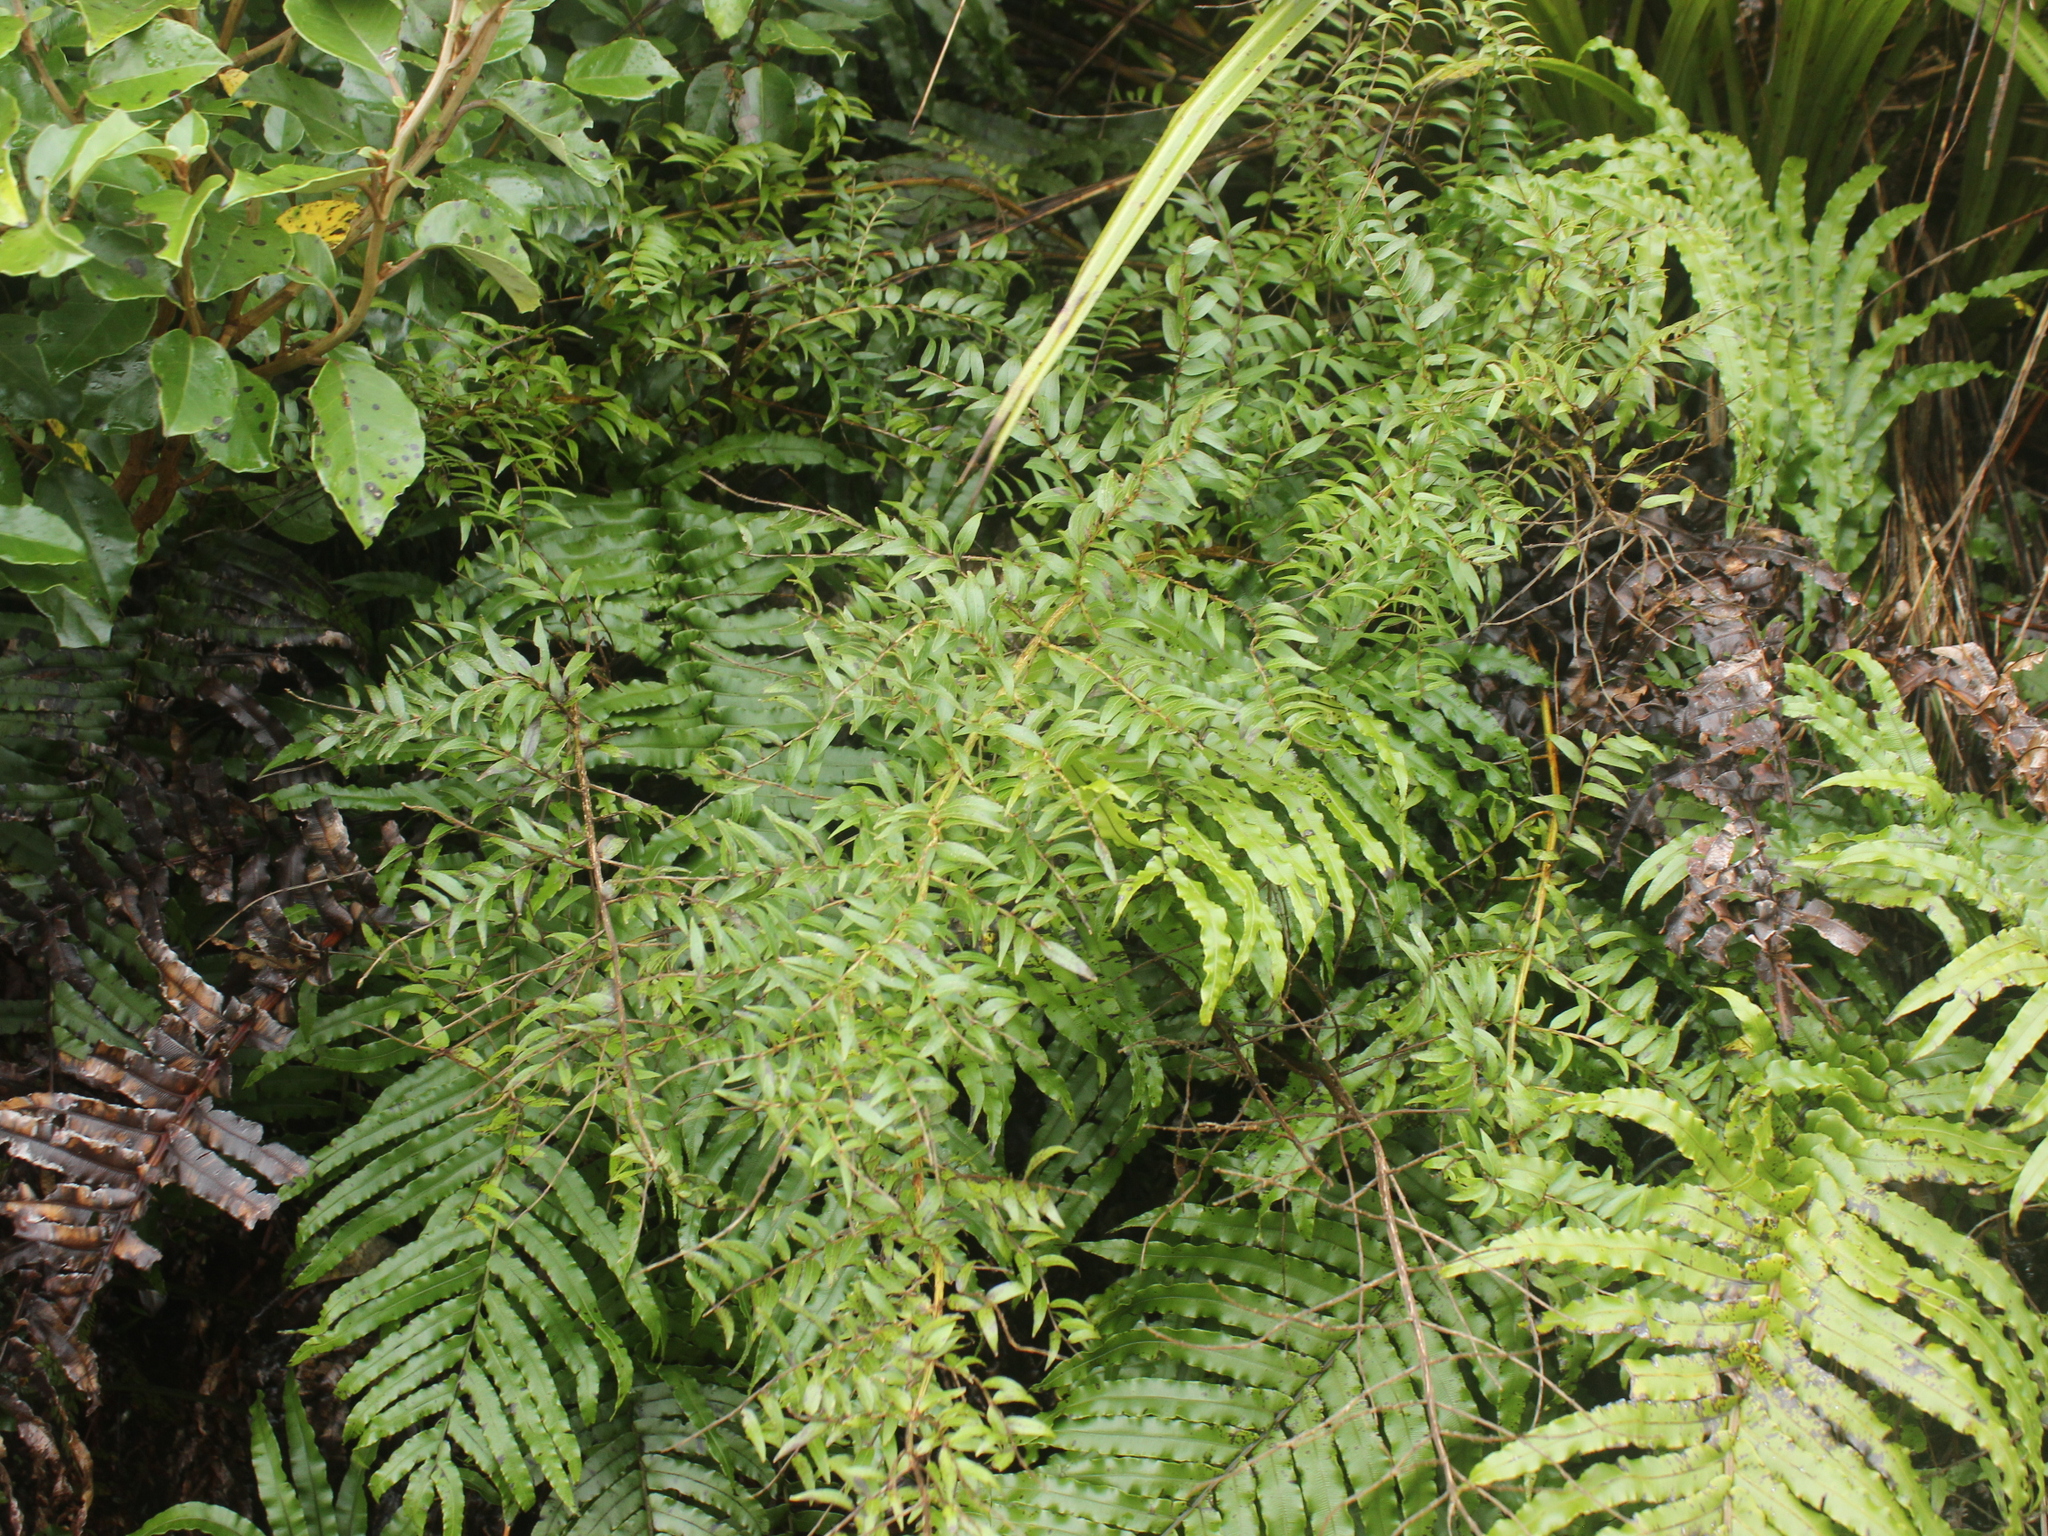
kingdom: Plantae
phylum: Tracheophyta
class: Magnoliopsida
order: Cucurbitales
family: Coriariaceae
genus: Coriaria
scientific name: Coriaria pteridoides
